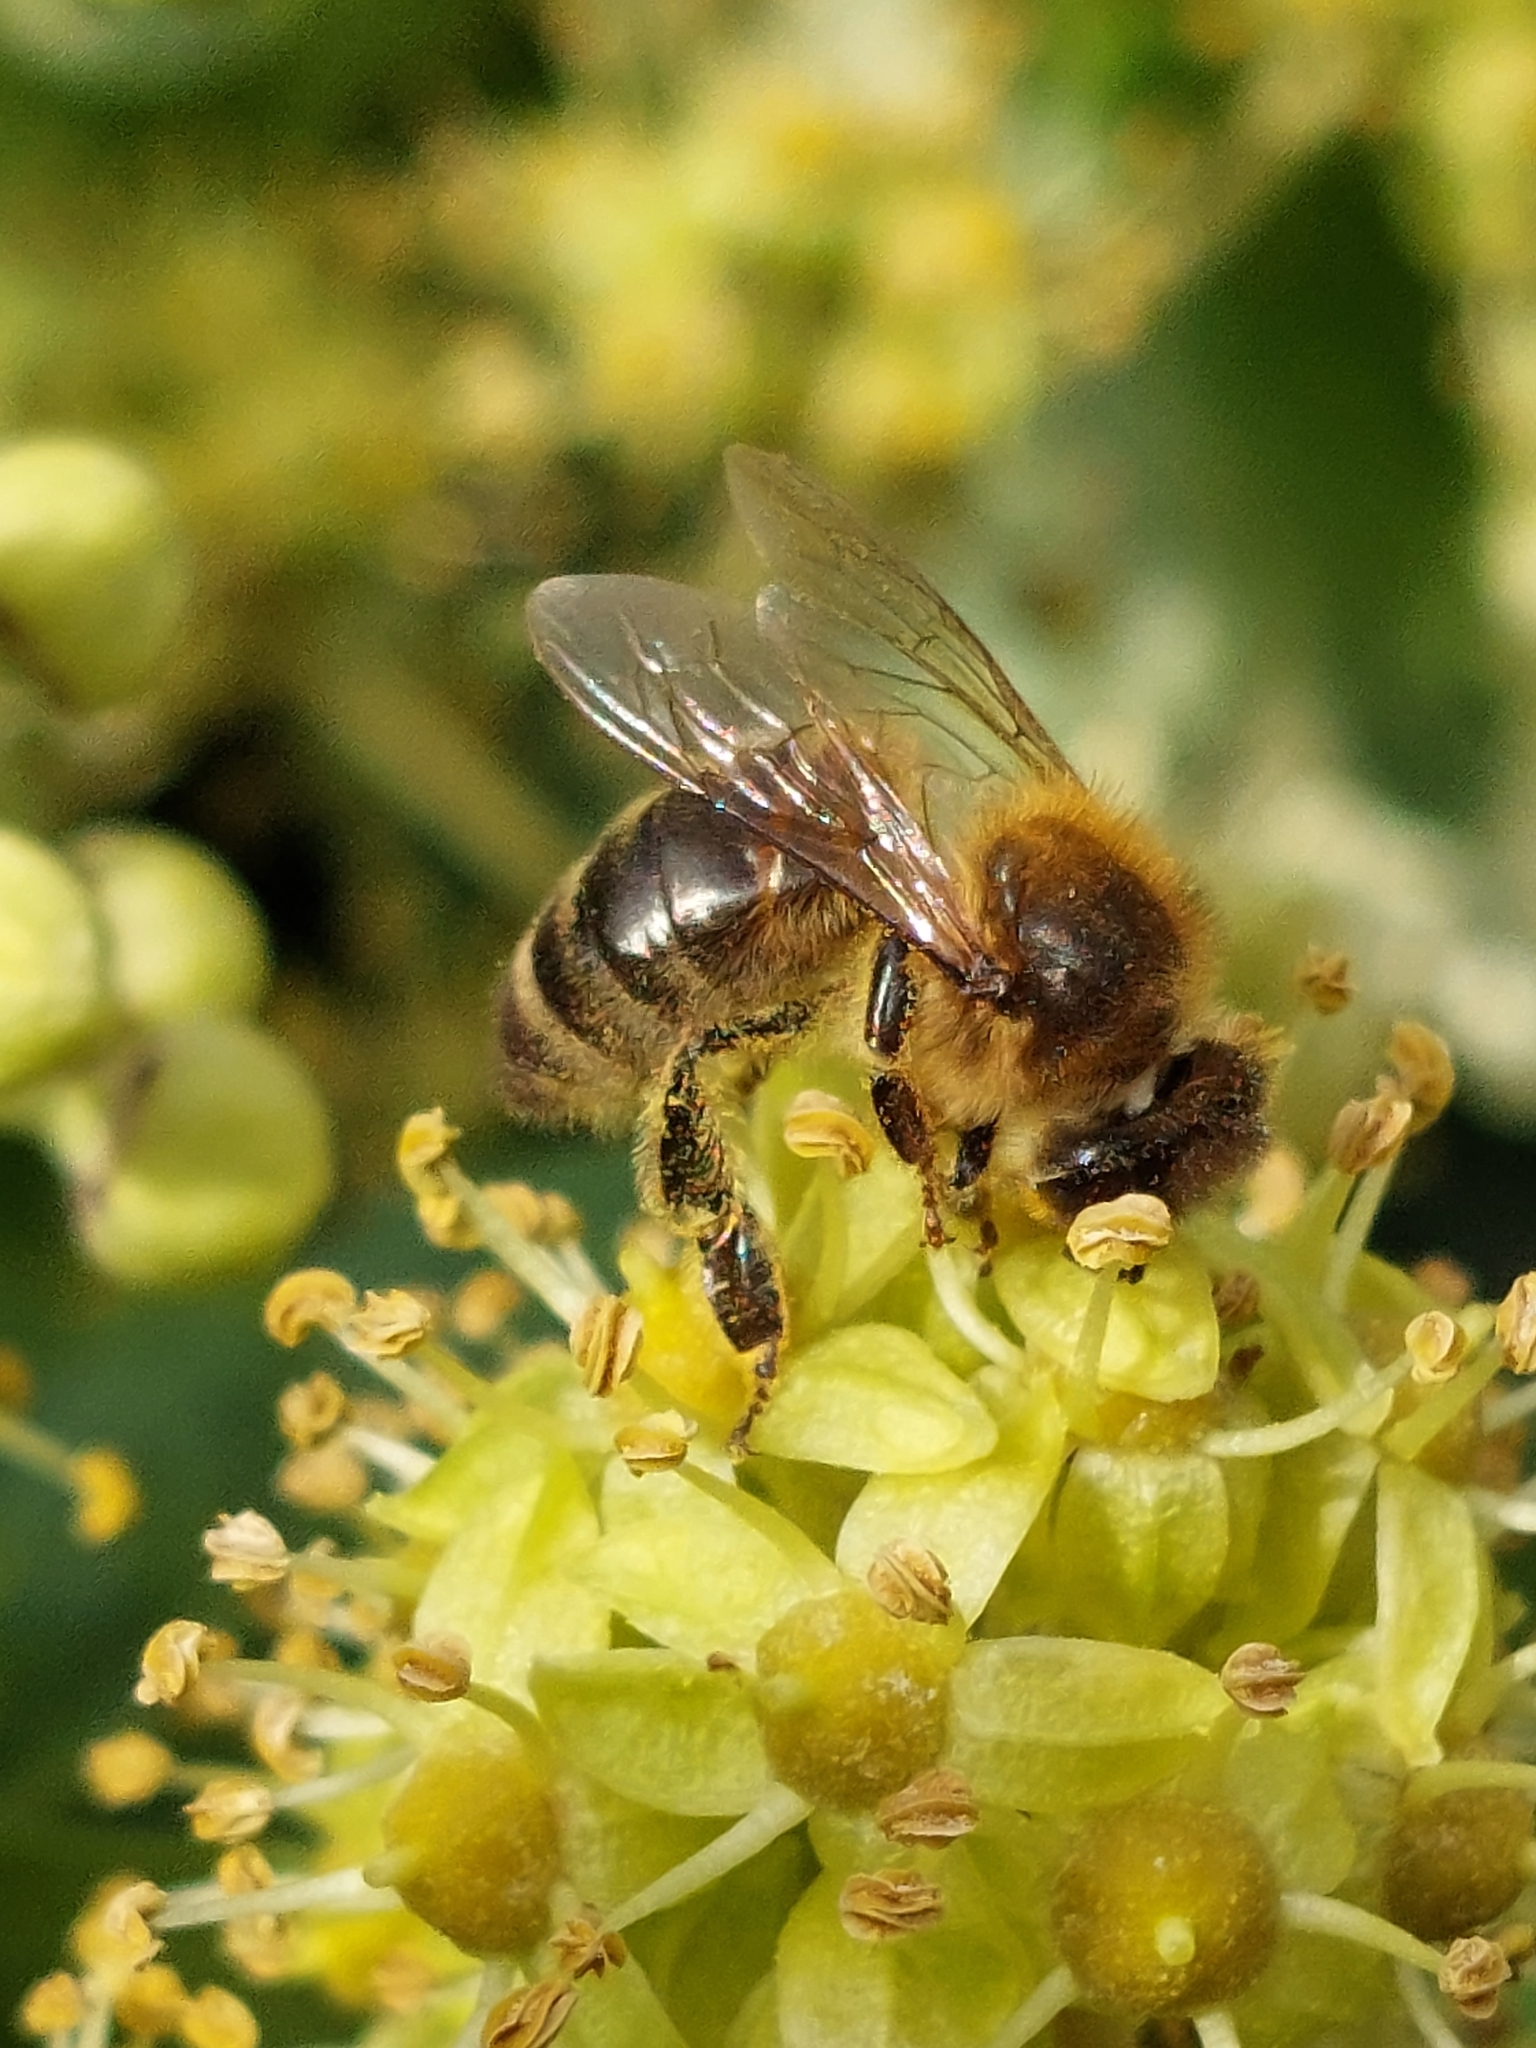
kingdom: Animalia
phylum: Arthropoda
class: Insecta
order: Hymenoptera
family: Apidae
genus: Apis
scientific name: Apis mellifera
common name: Honey bee
